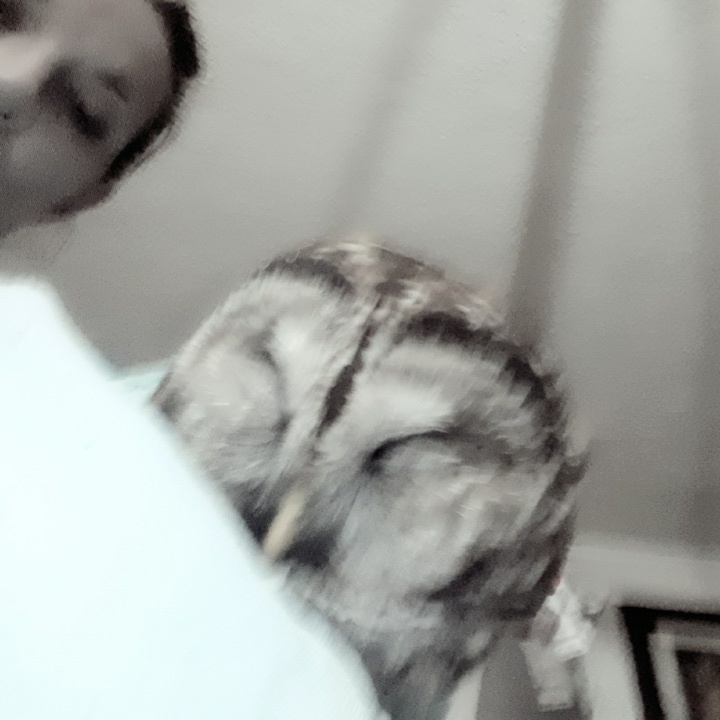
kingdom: Animalia
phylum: Chordata
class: Aves
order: Strigiformes
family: Strigidae
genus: Strix
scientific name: Strix varia
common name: Barred owl
